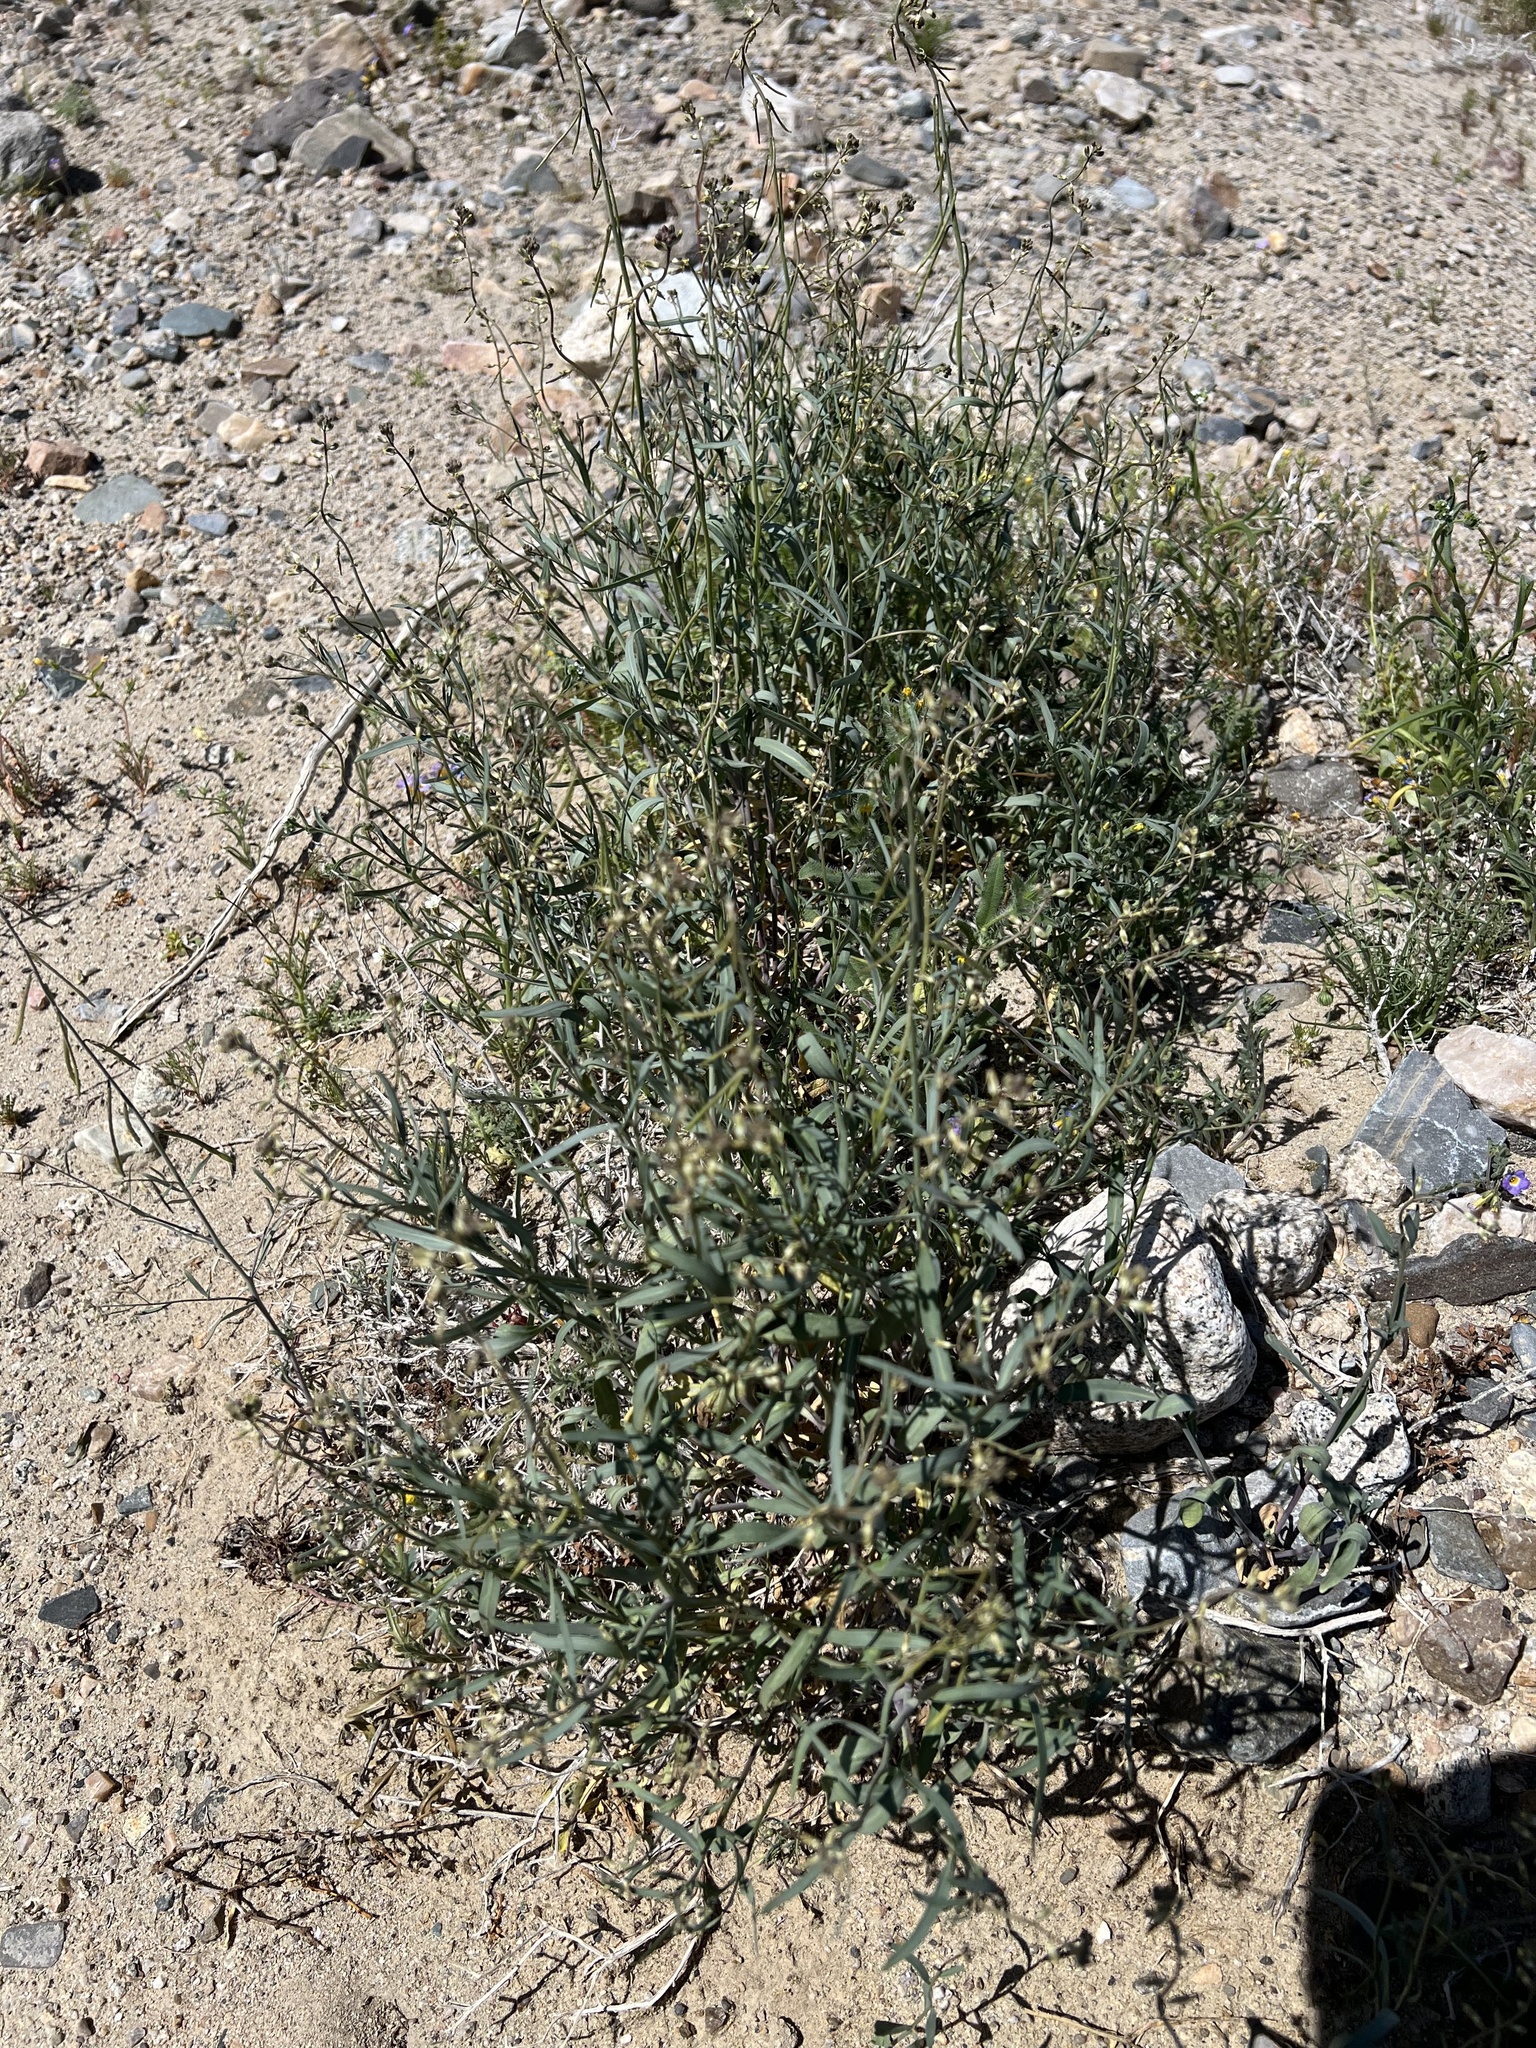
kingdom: Plantae
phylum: Tracheophyta
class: Magnoliopsida
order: Brassicales
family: Brassicaceae
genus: Streptanthus
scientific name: Streptanthus longirostris
